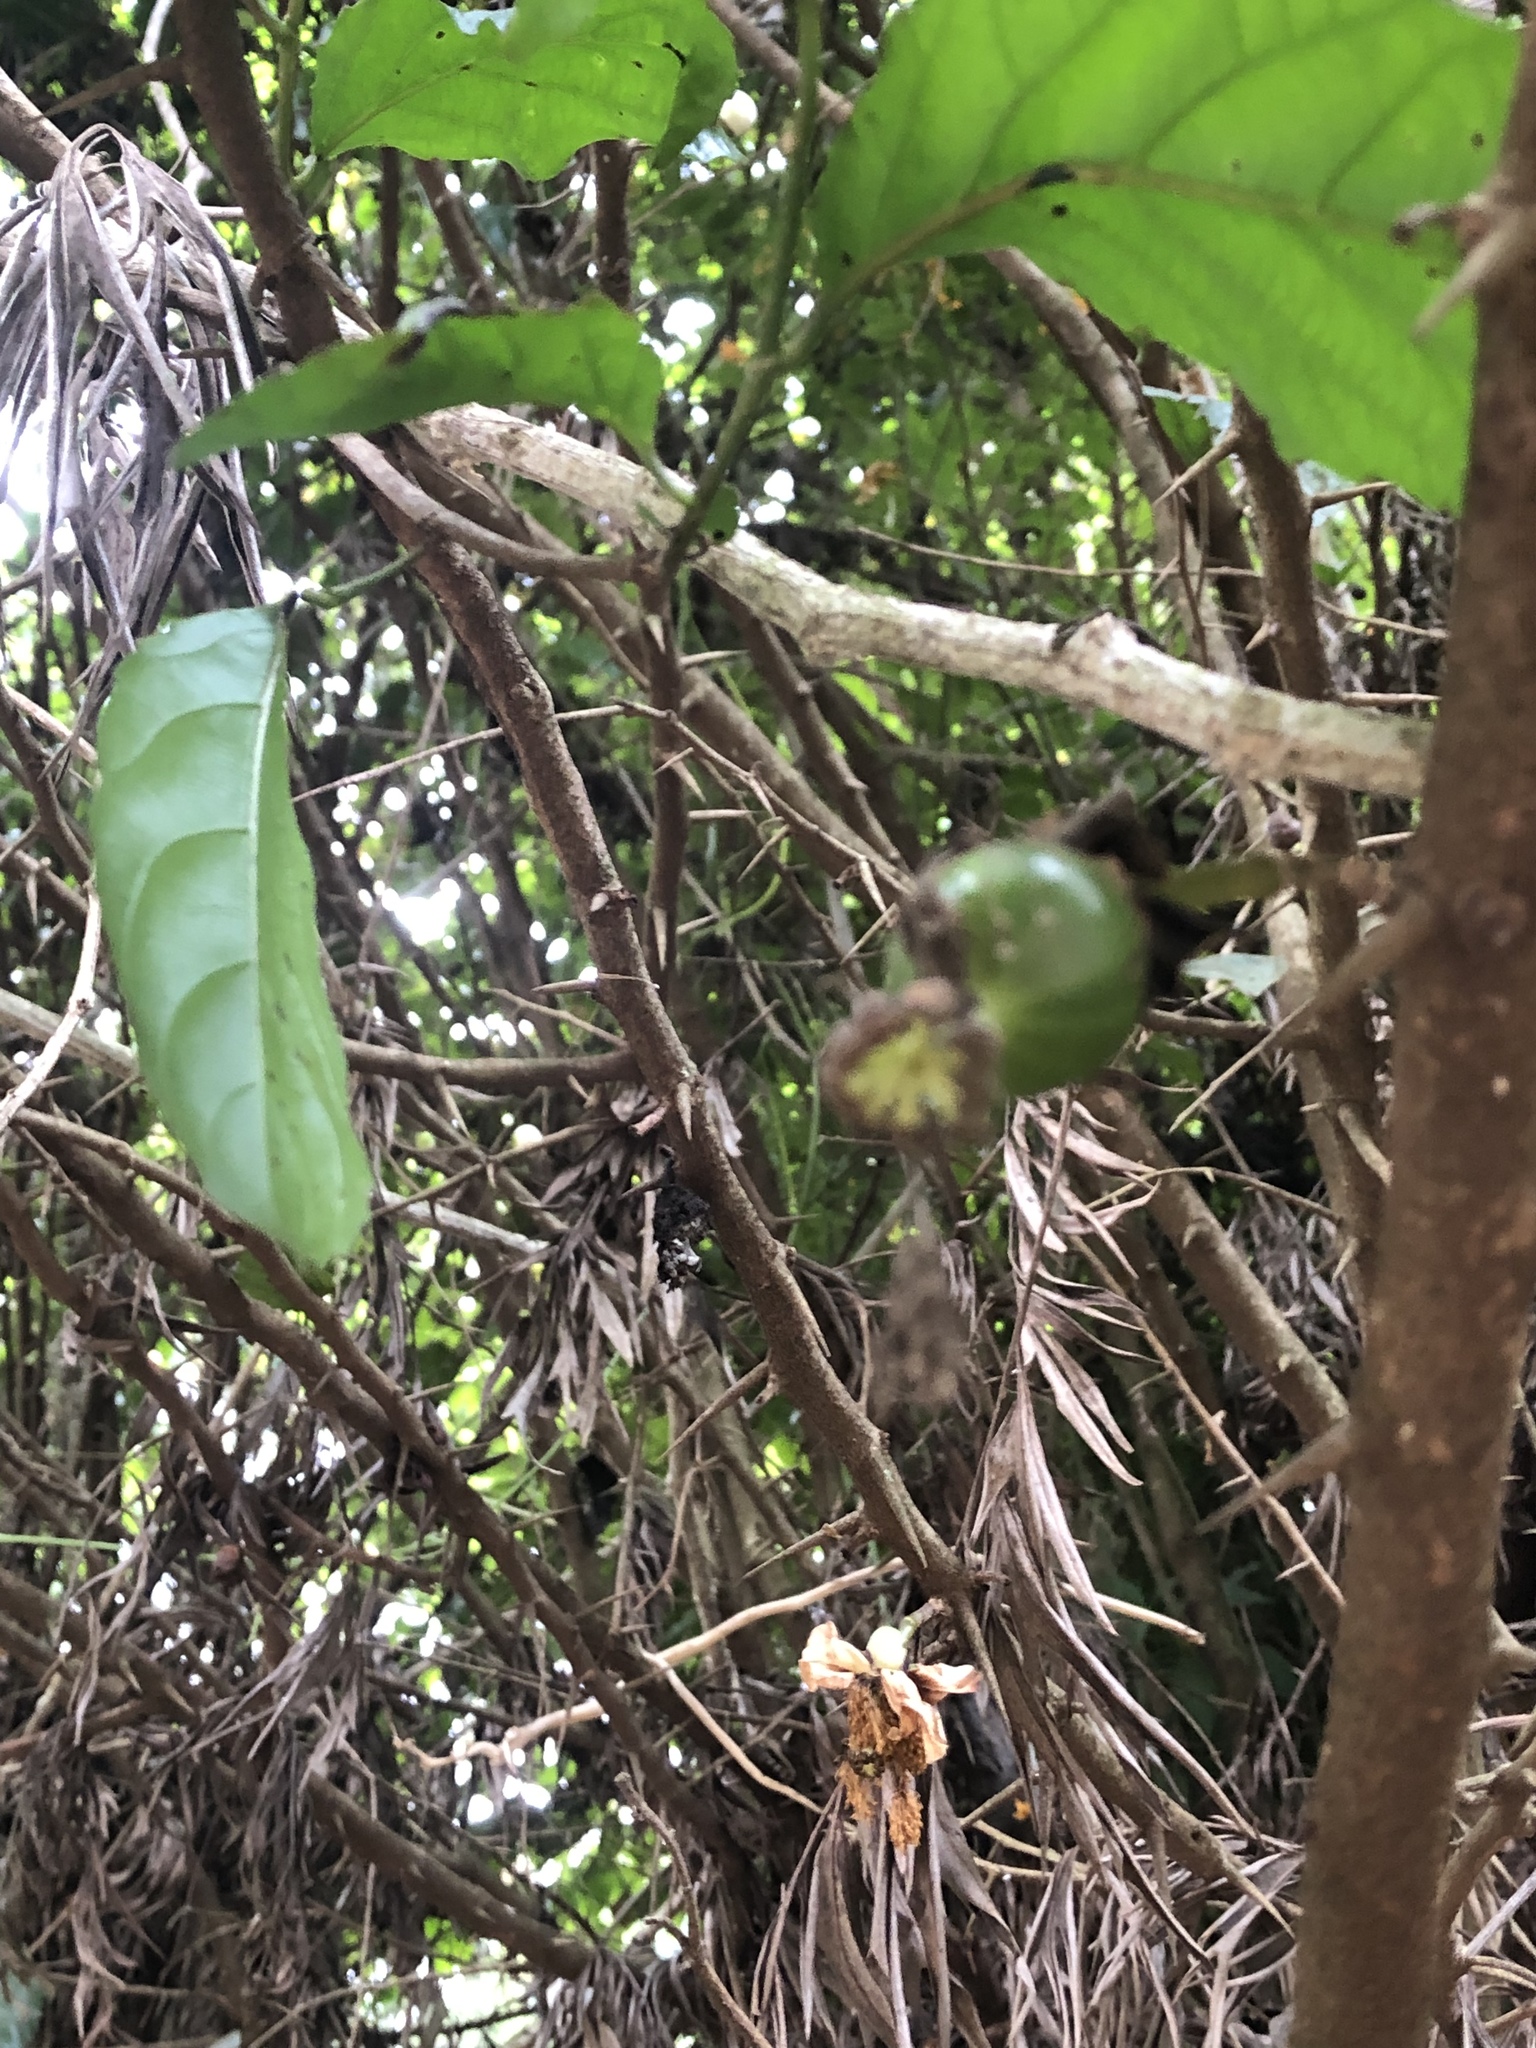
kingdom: Plantae
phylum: Tracheophyta
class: Magnoliopsida
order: Malpighiales
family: Salicaceae
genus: Oncoba
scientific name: Oncoba spinosa
